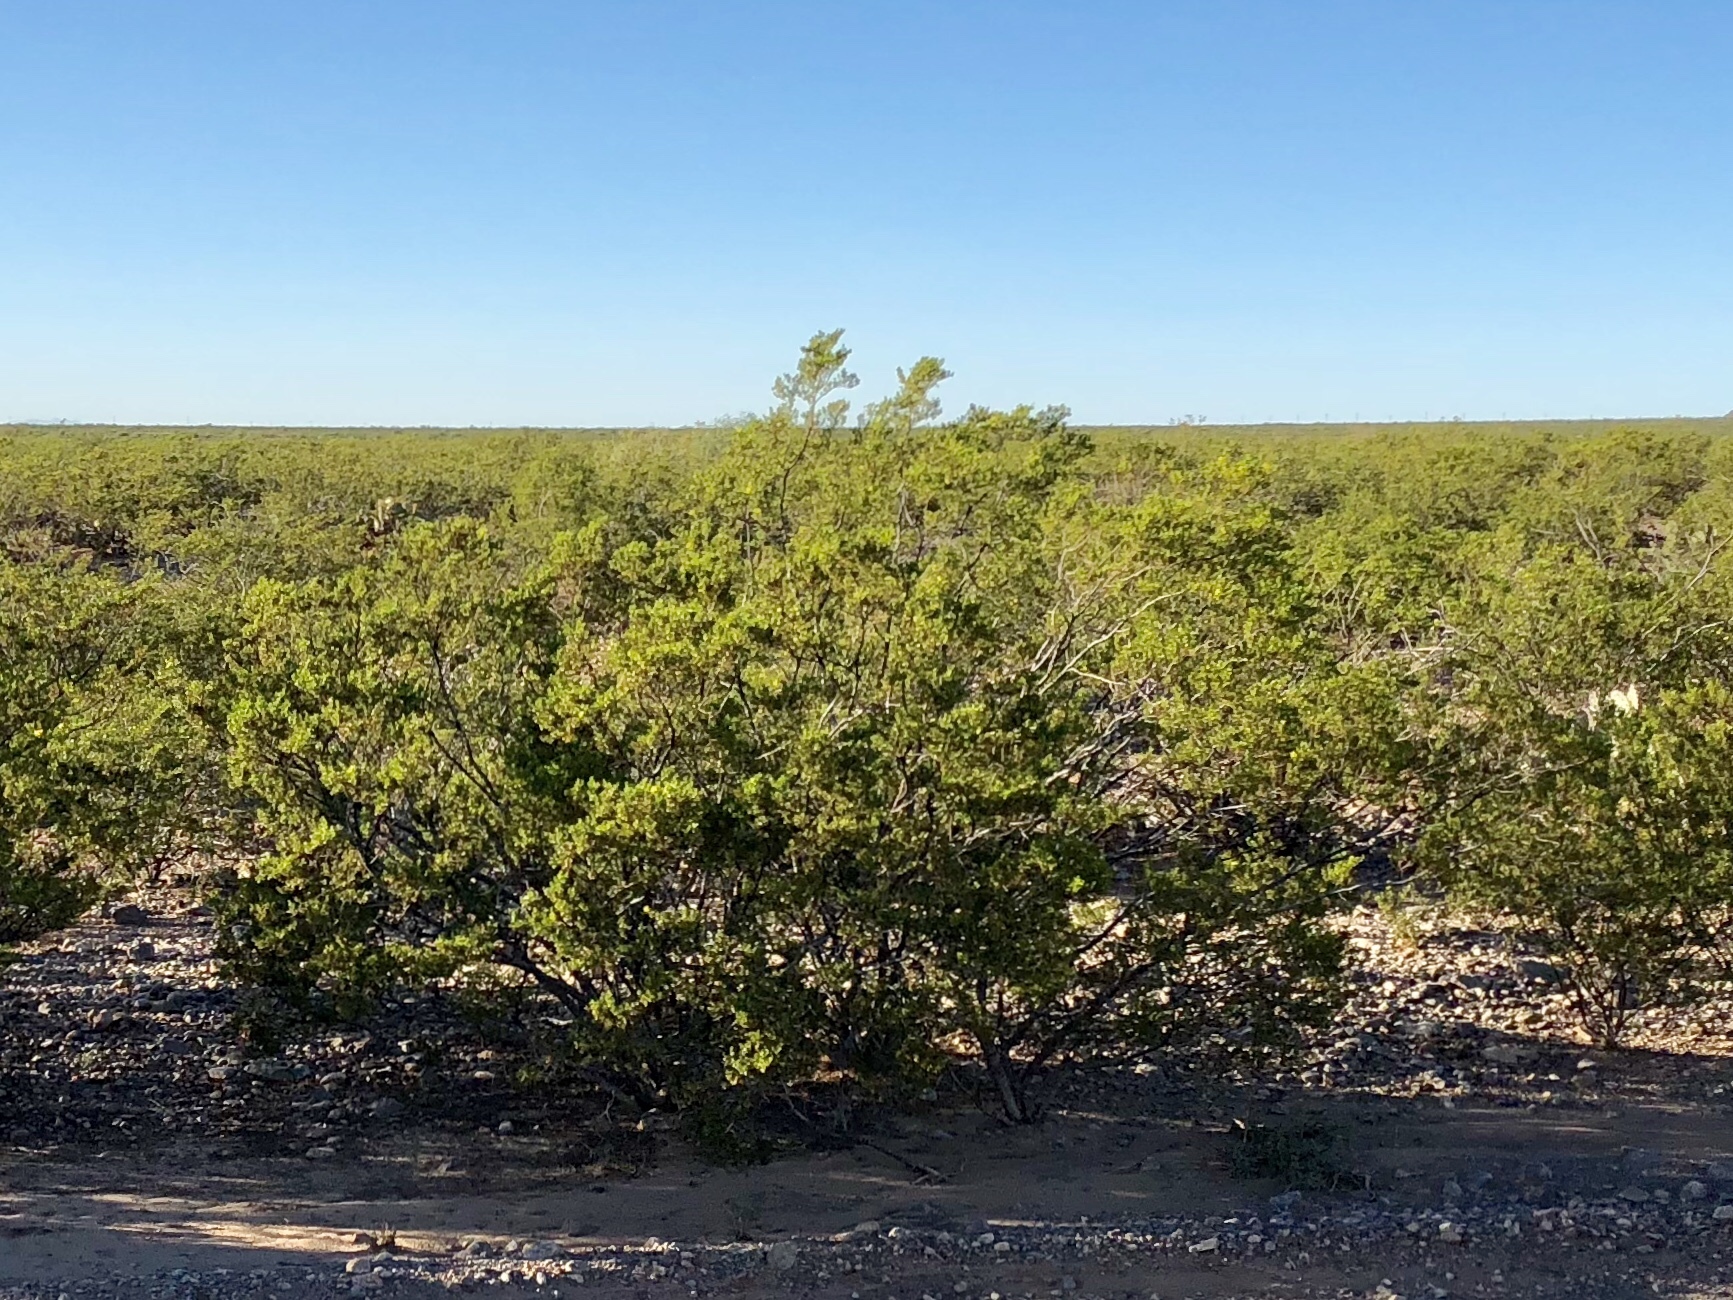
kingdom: Plantae
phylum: Tracheophyta
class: Magnoliopsida
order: Zygophyllales
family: Zygophyllaceae
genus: Larrea
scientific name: Larrea tridentata
